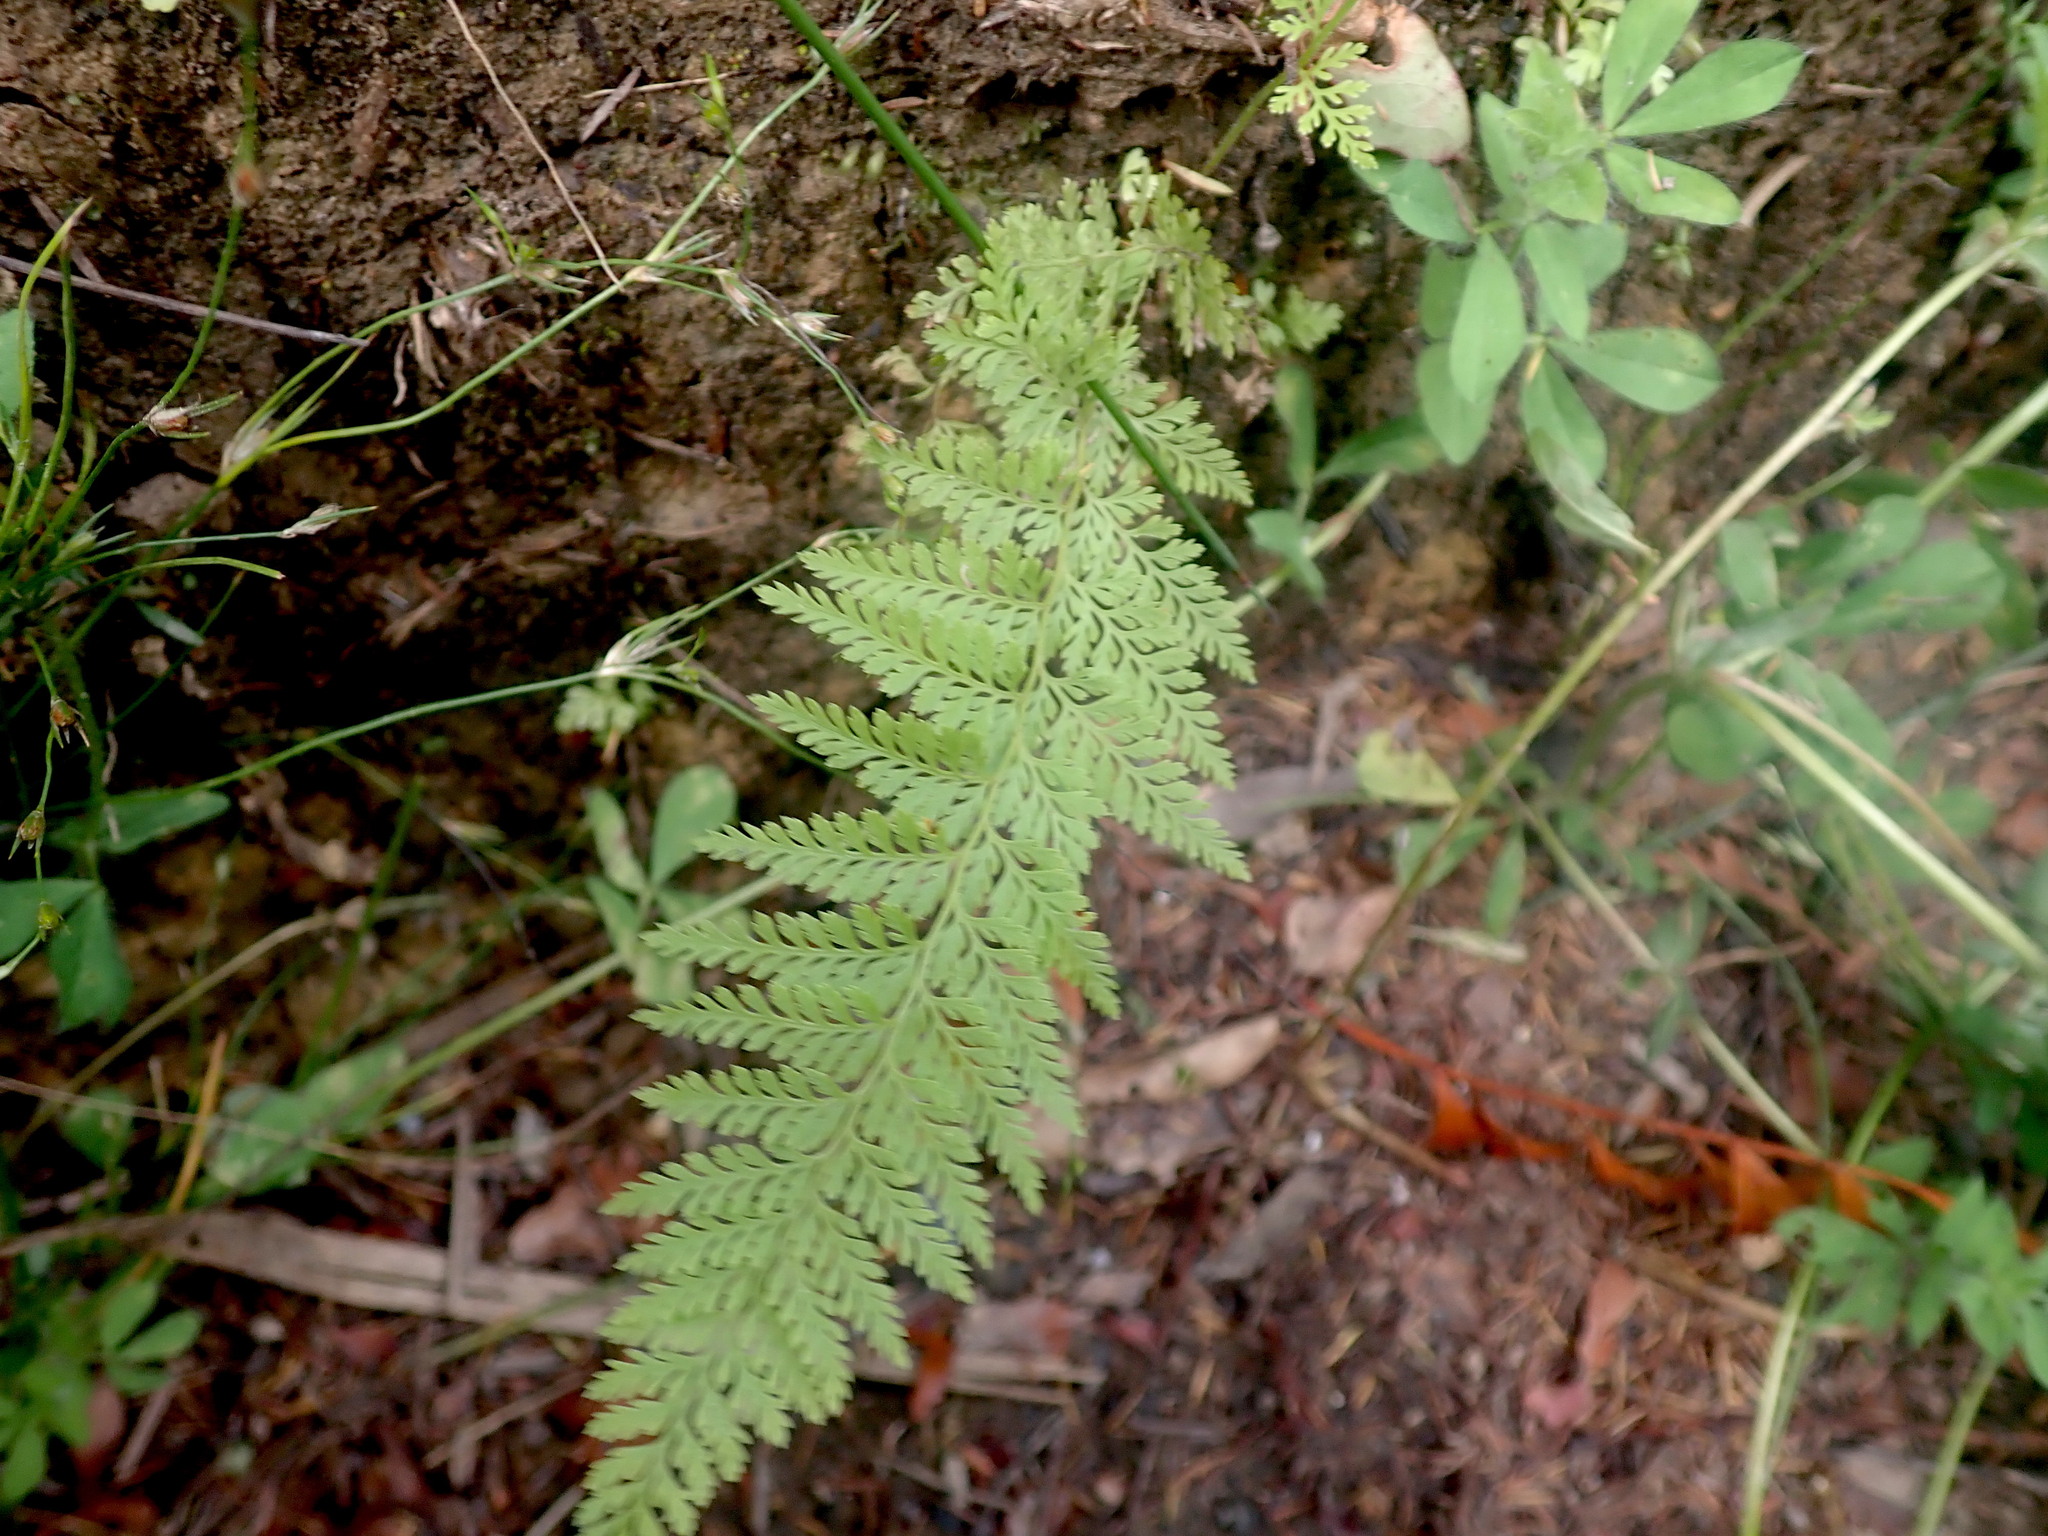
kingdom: Plantae
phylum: Tracheophyta
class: Polypodiopsida
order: Polypodiales
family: Dennstaedtiaceae
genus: Paesia
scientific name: Paesia scaberula
